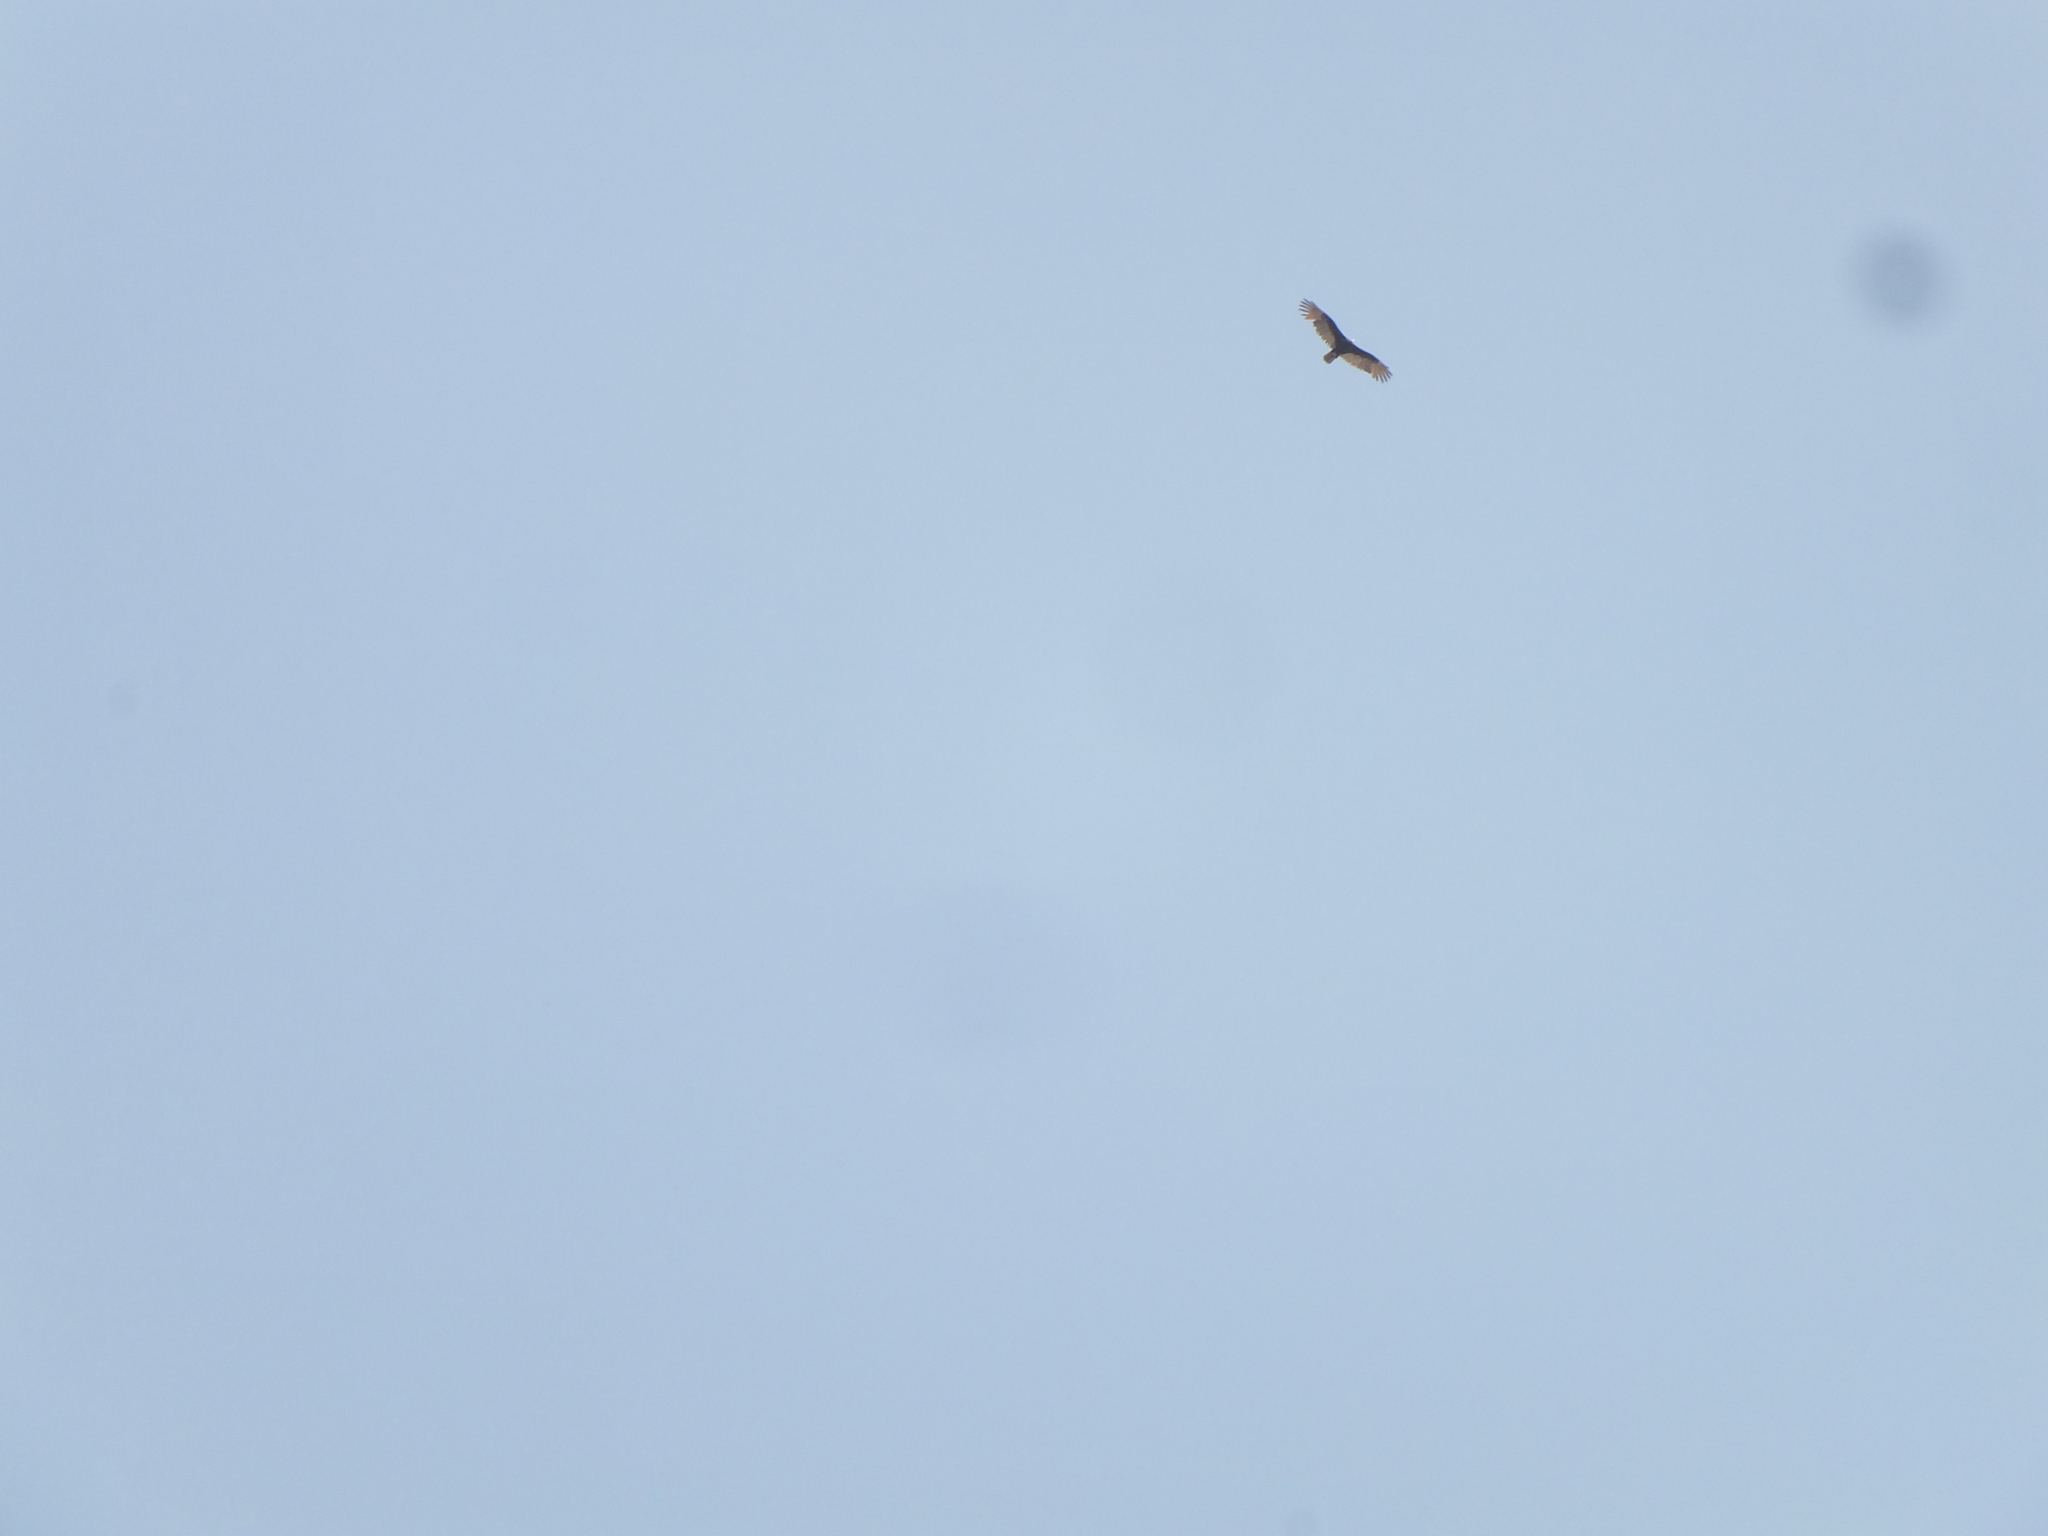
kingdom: Animalia
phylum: Chordata
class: Aves
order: Accipitriformes
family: Cathartidae
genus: Cathartes
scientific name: Cathartes aura
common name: Turkey vulture
